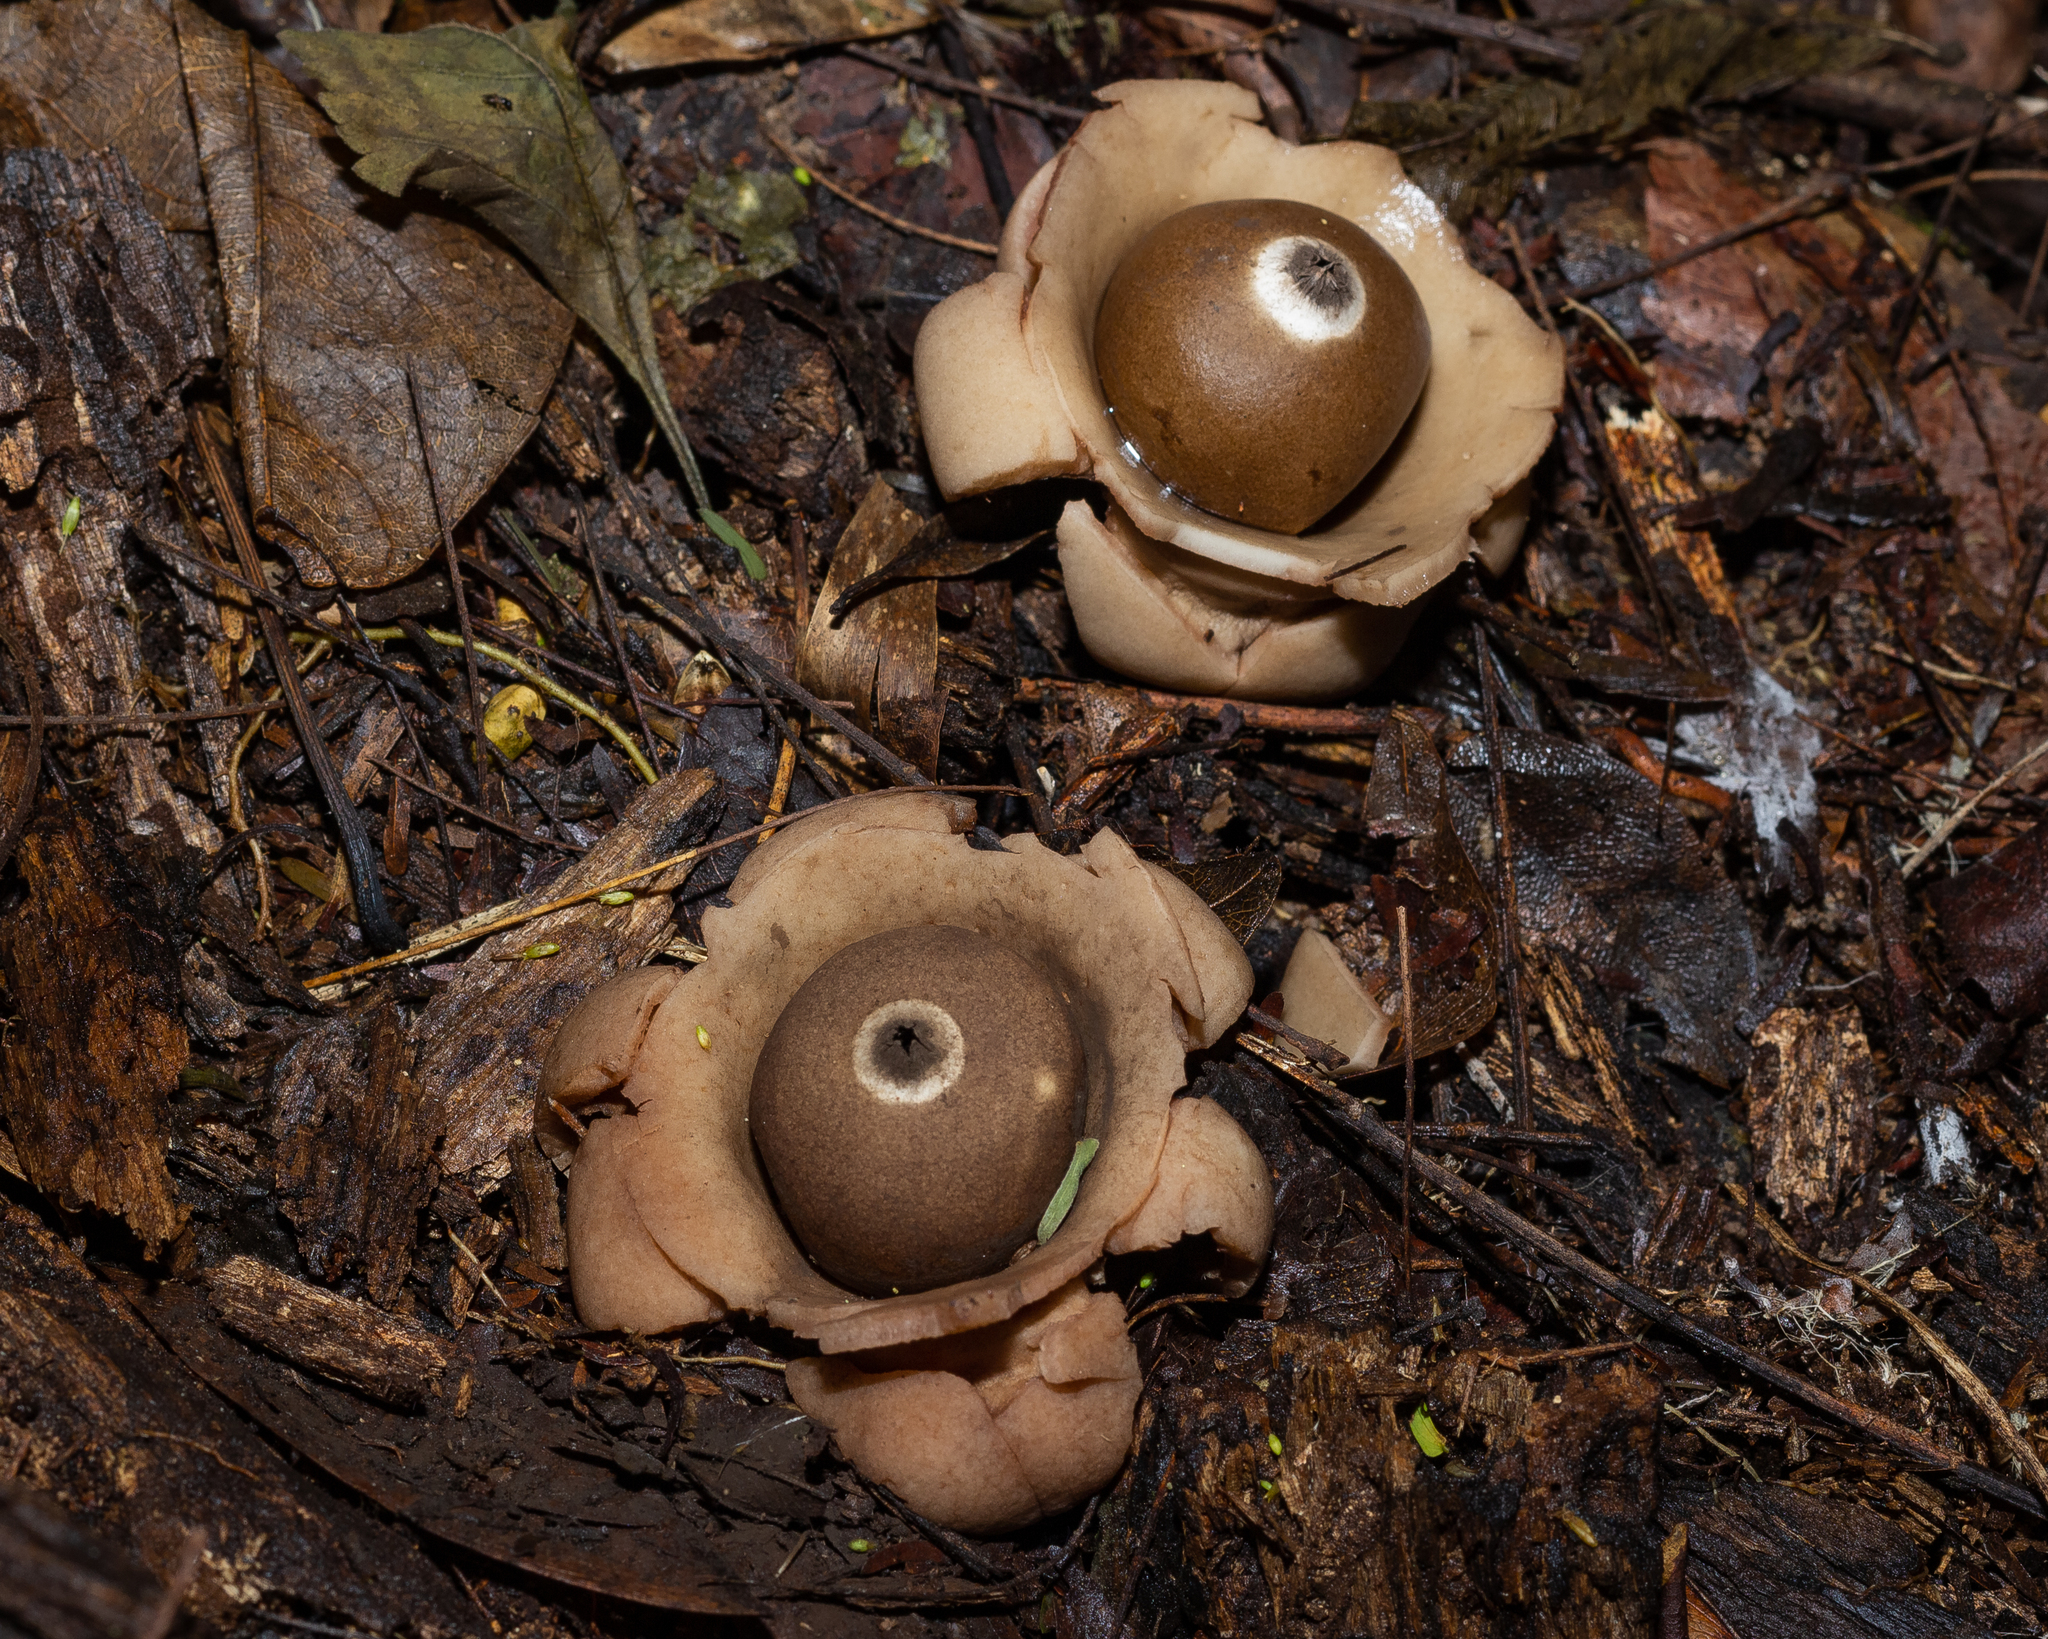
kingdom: Fungi
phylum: Basidiomycota
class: Agaricomycetes
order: Geastrales
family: Geastraceae
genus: Geastrum
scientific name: Geastrum triplex
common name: Collared earthstar
